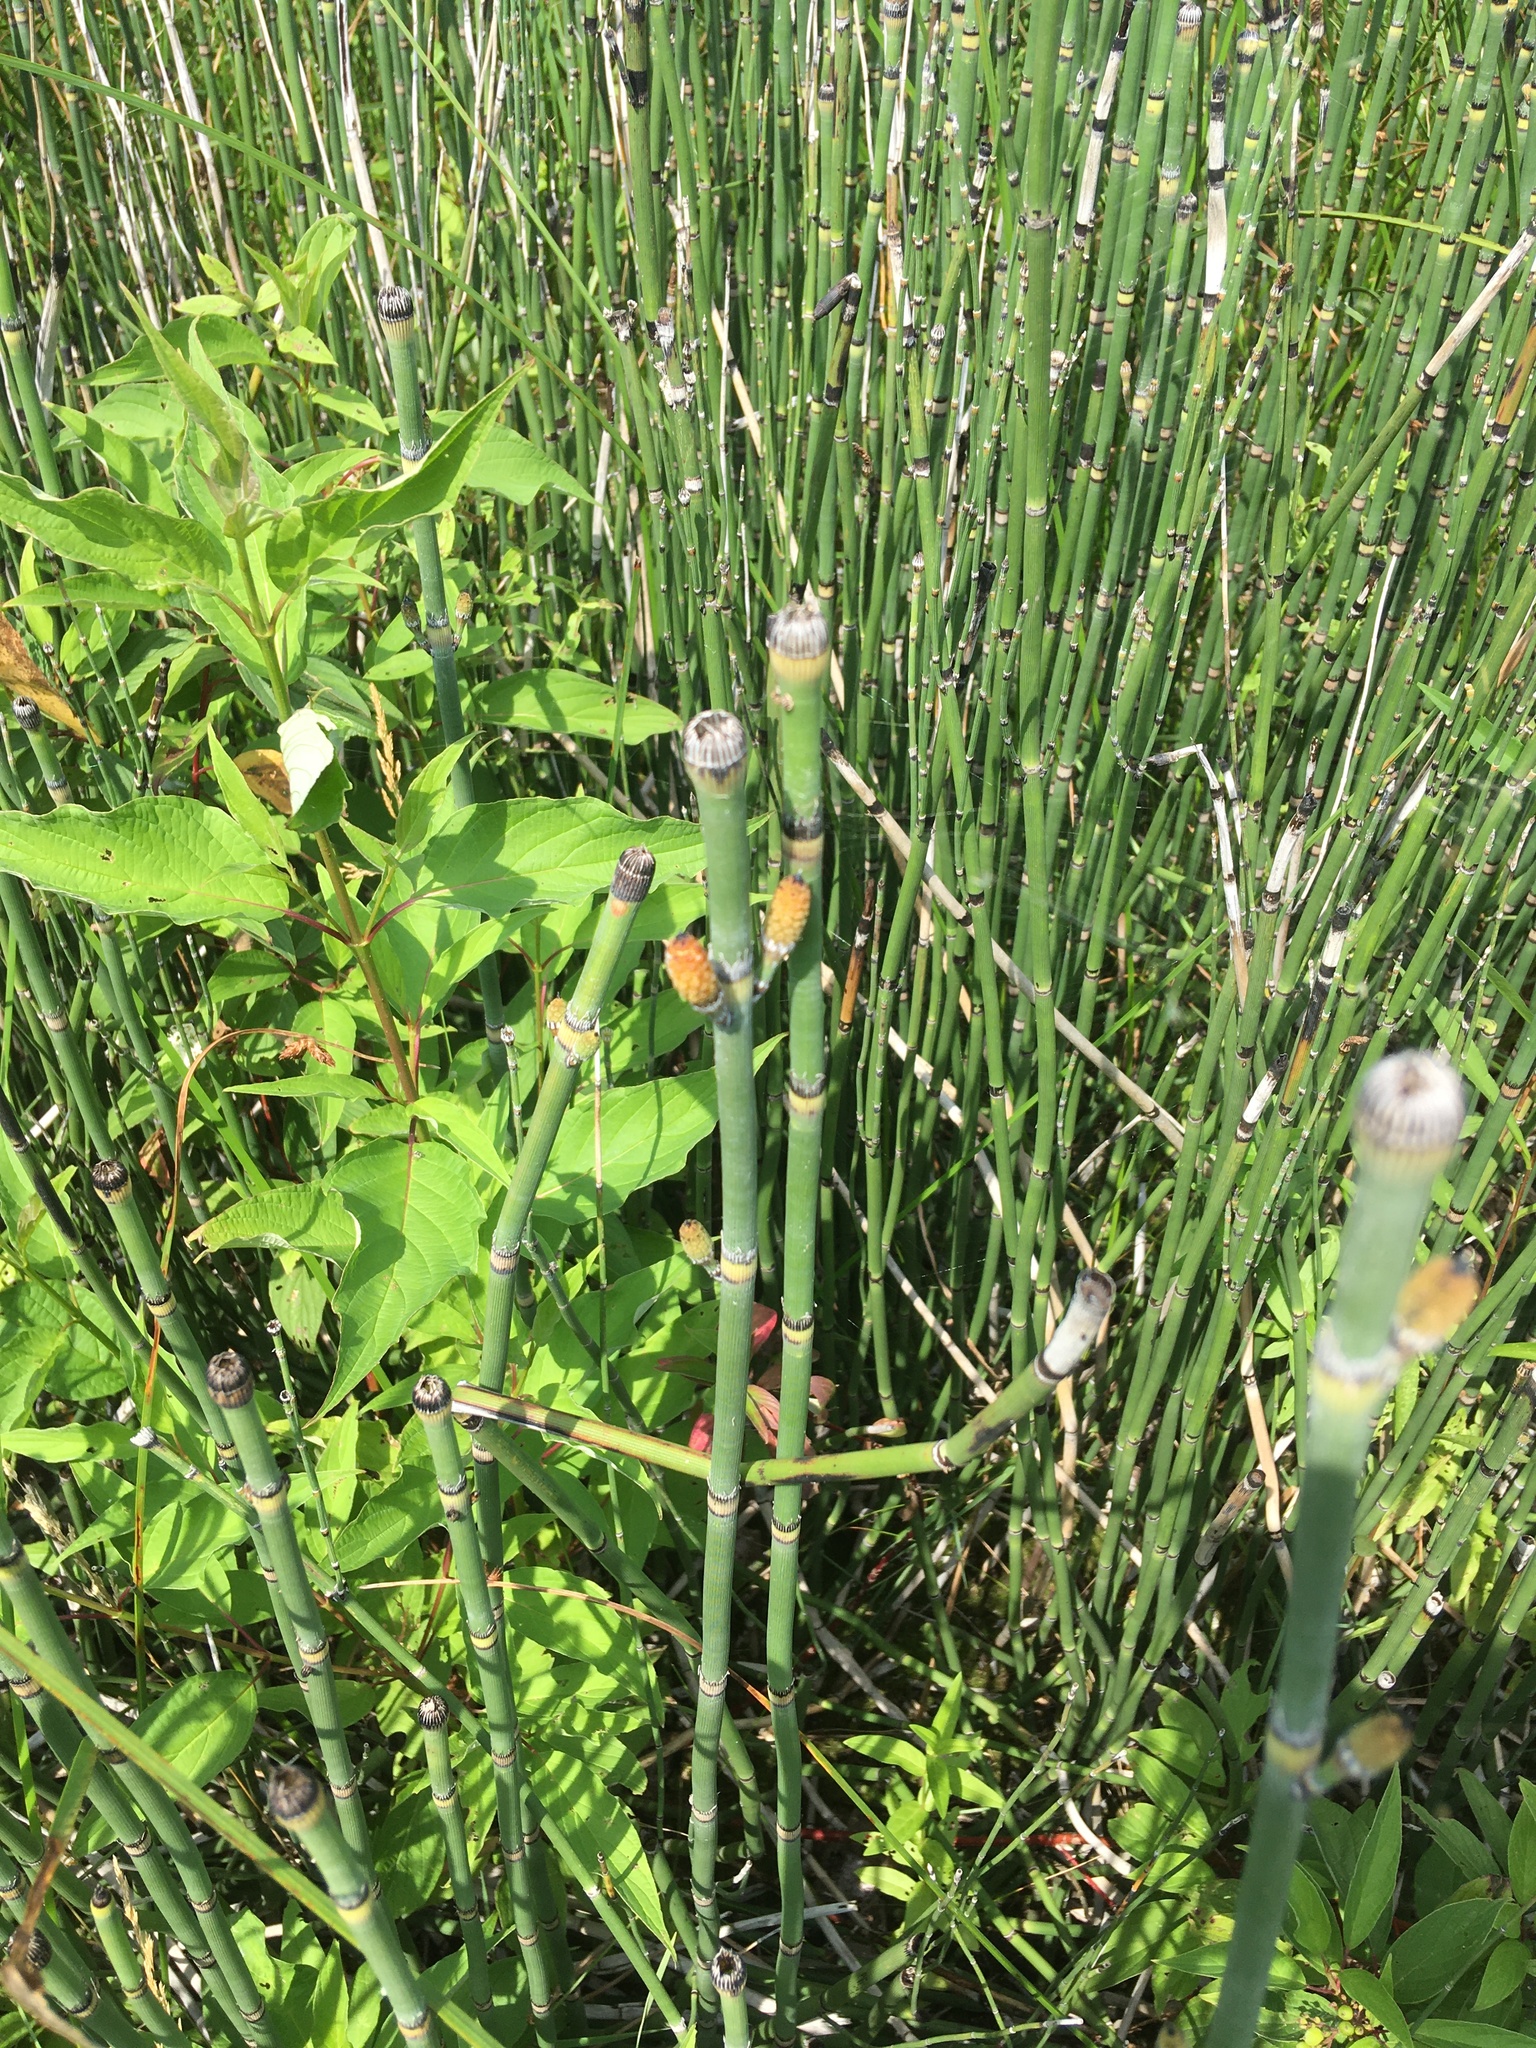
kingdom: Plantae
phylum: Tracheophyta
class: Polypodiopsida
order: Equisetales
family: Equisetaceae
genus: Equisetum
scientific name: Equisetum hyemale
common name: Rough horsetail
